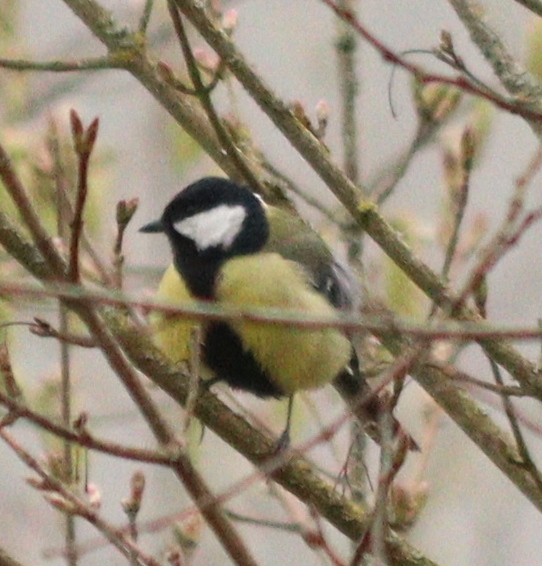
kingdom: Animalia
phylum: Chordata
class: Aves
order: Passeriformes
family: Paridae
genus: Parus
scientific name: Parus major
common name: Great tit
